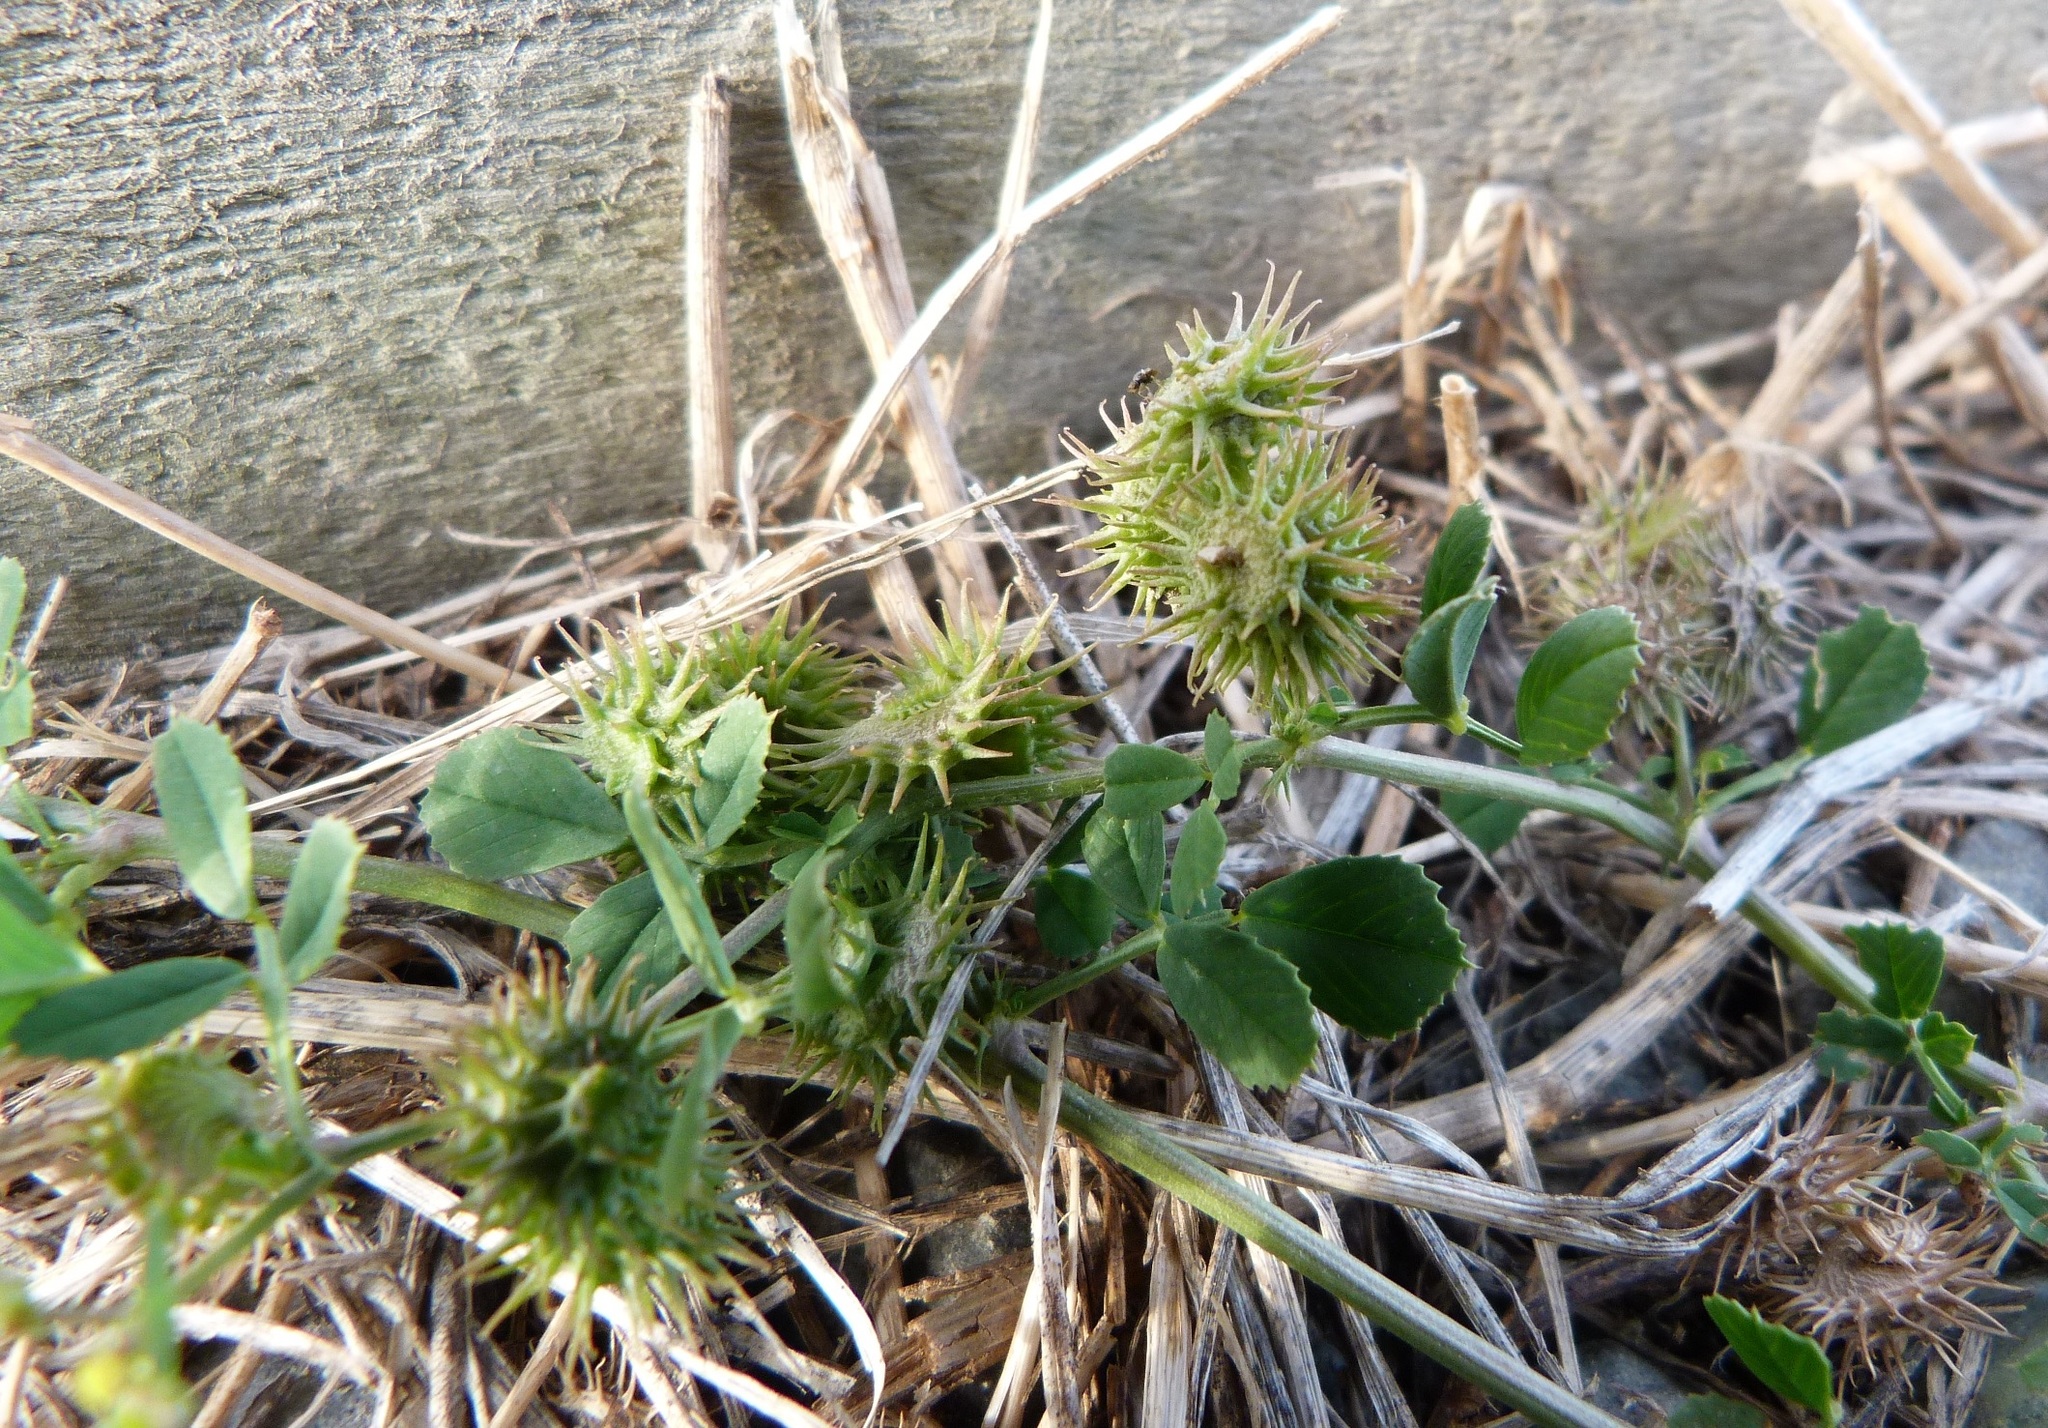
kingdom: Plantae
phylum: Tracheophyta
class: Magnoliopsida
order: Fabales
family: Fabaceae
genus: Medicago
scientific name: Medicago polymorpha
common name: Burclover
